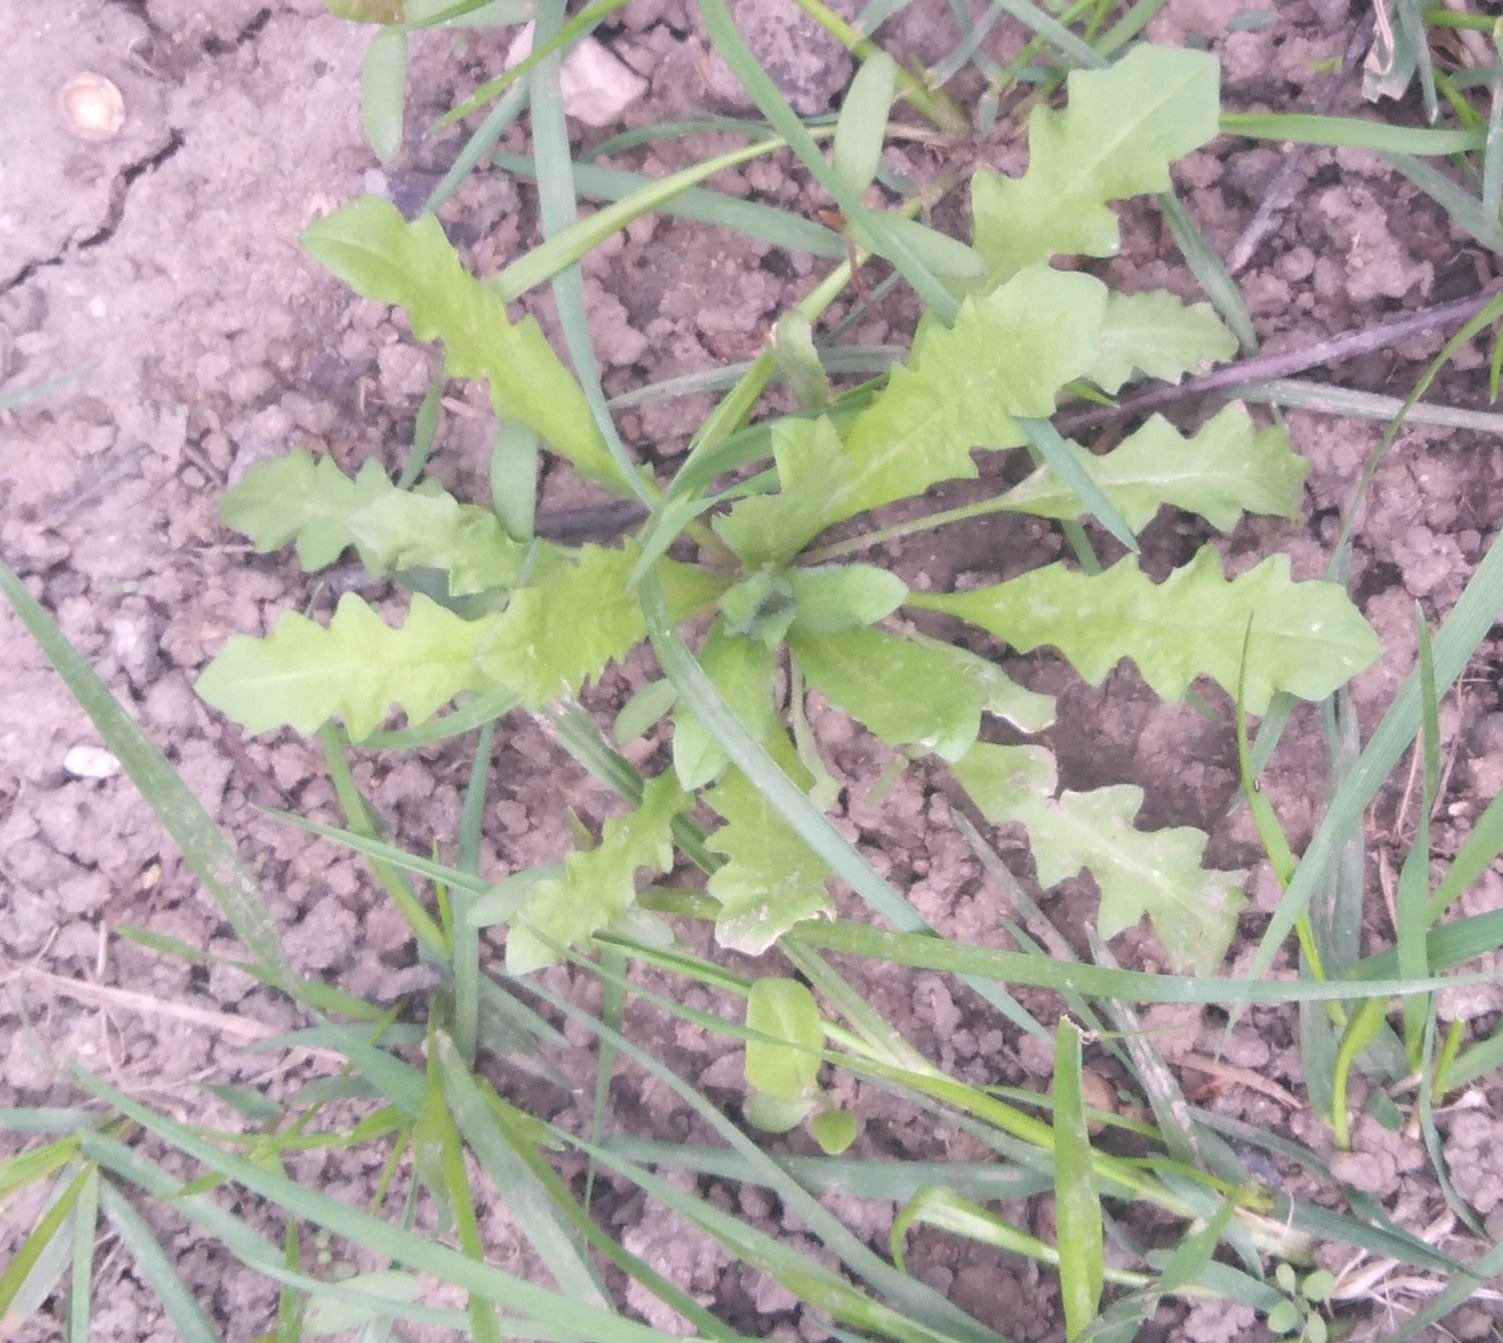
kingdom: Plantae
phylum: Tracheophyta
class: Magnoliopsida
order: Brassicales
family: Brassicaceae
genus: Capsella
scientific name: Capsella bursa-pastoris
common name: Shepherd's purse
